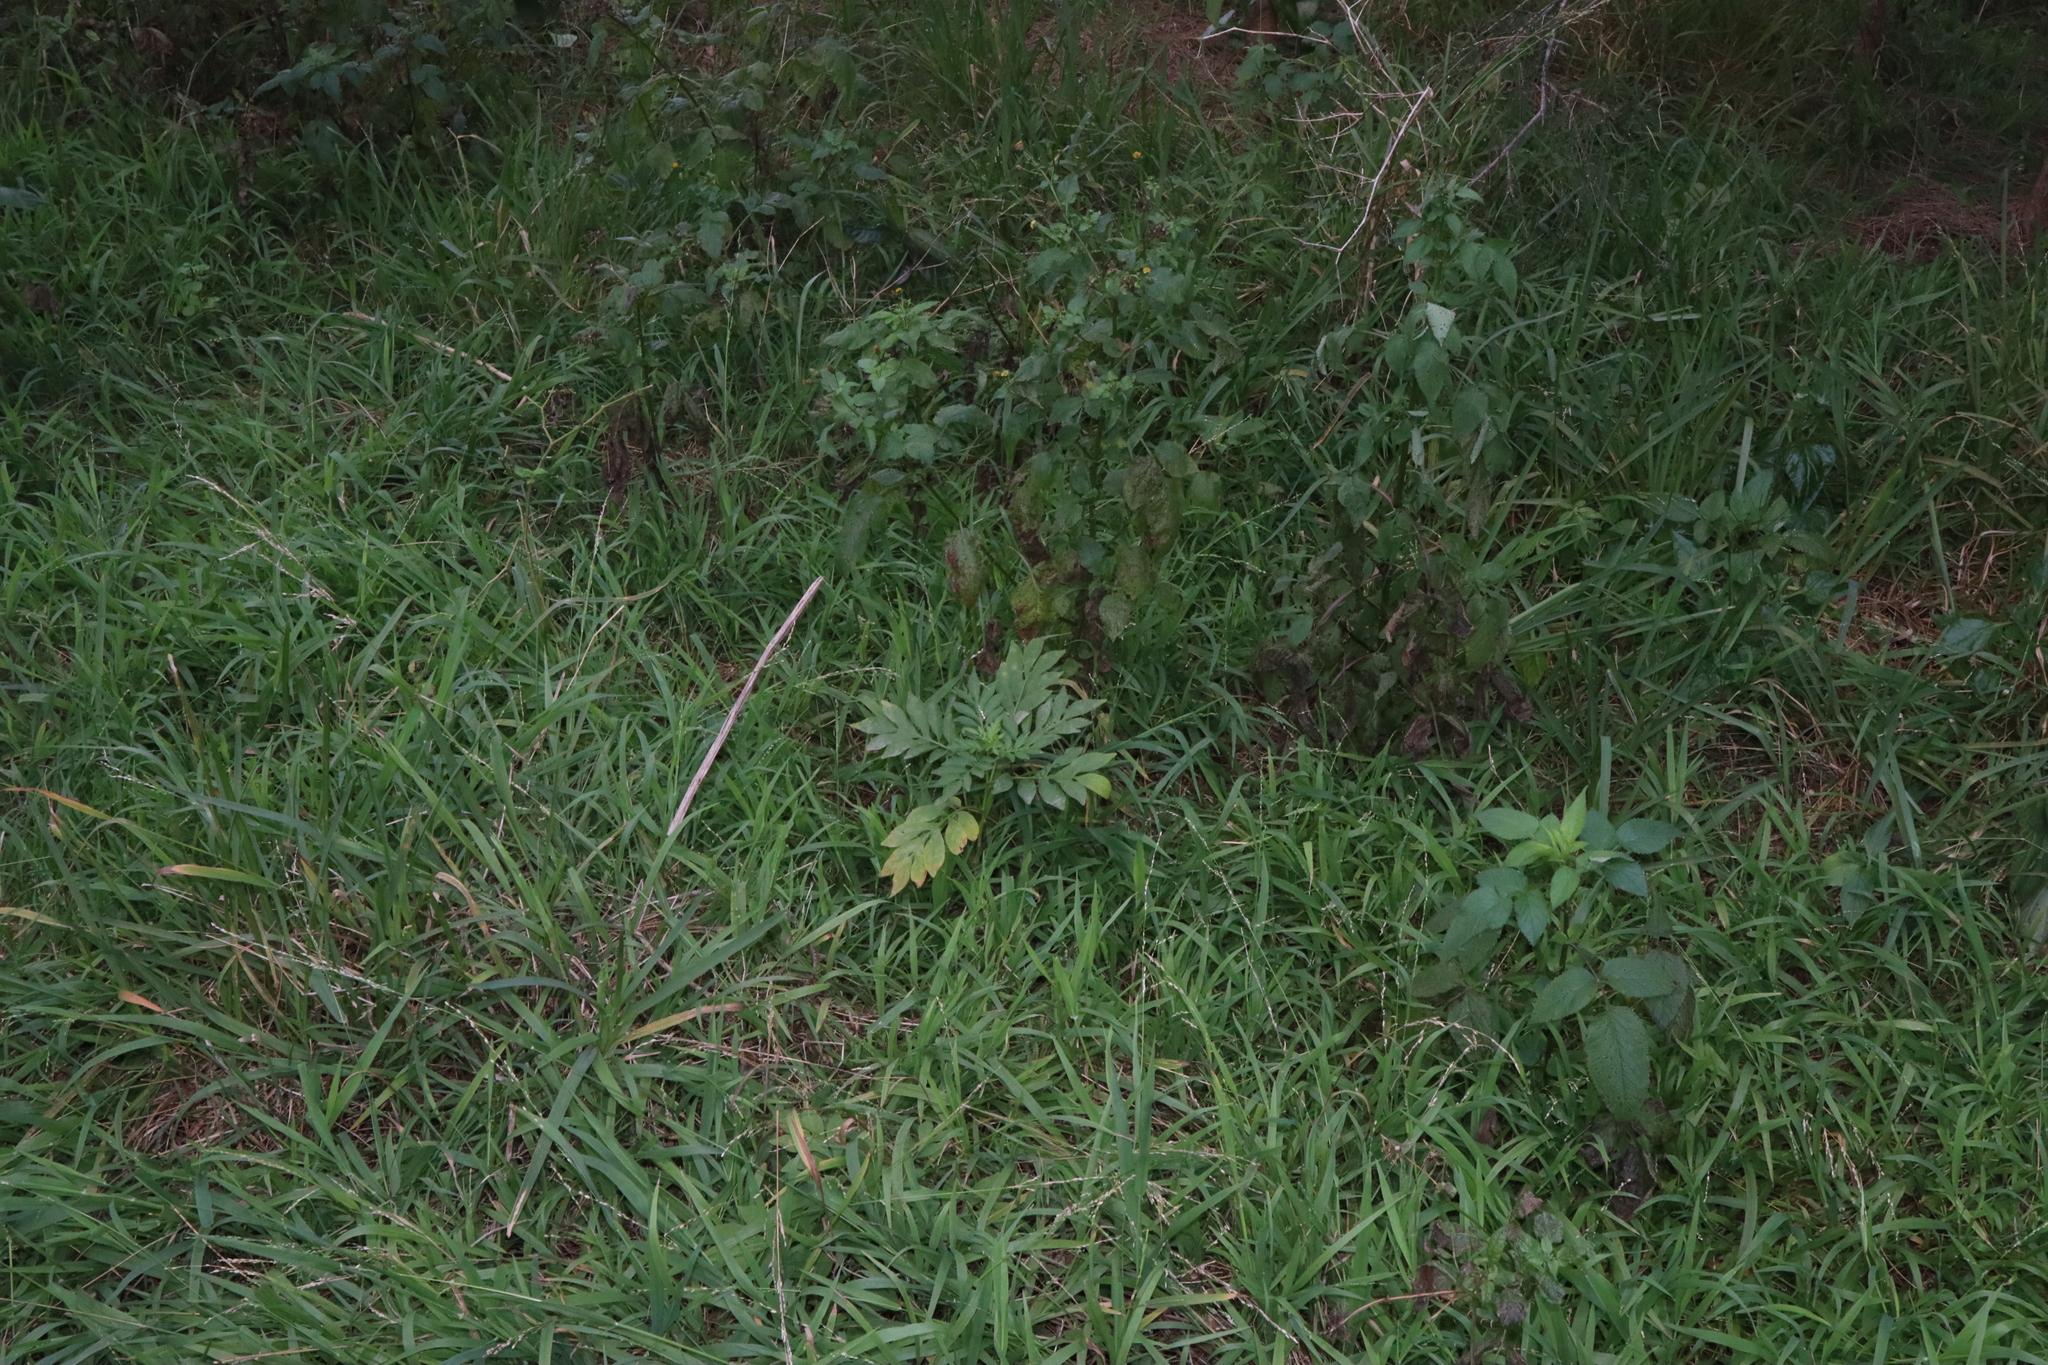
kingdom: Plantae
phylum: Tracheophyta
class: Magnoliopsida
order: Solanales
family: Solanaceae
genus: Solanum
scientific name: Solanum seaforthianum
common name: Brazilian nightshade
